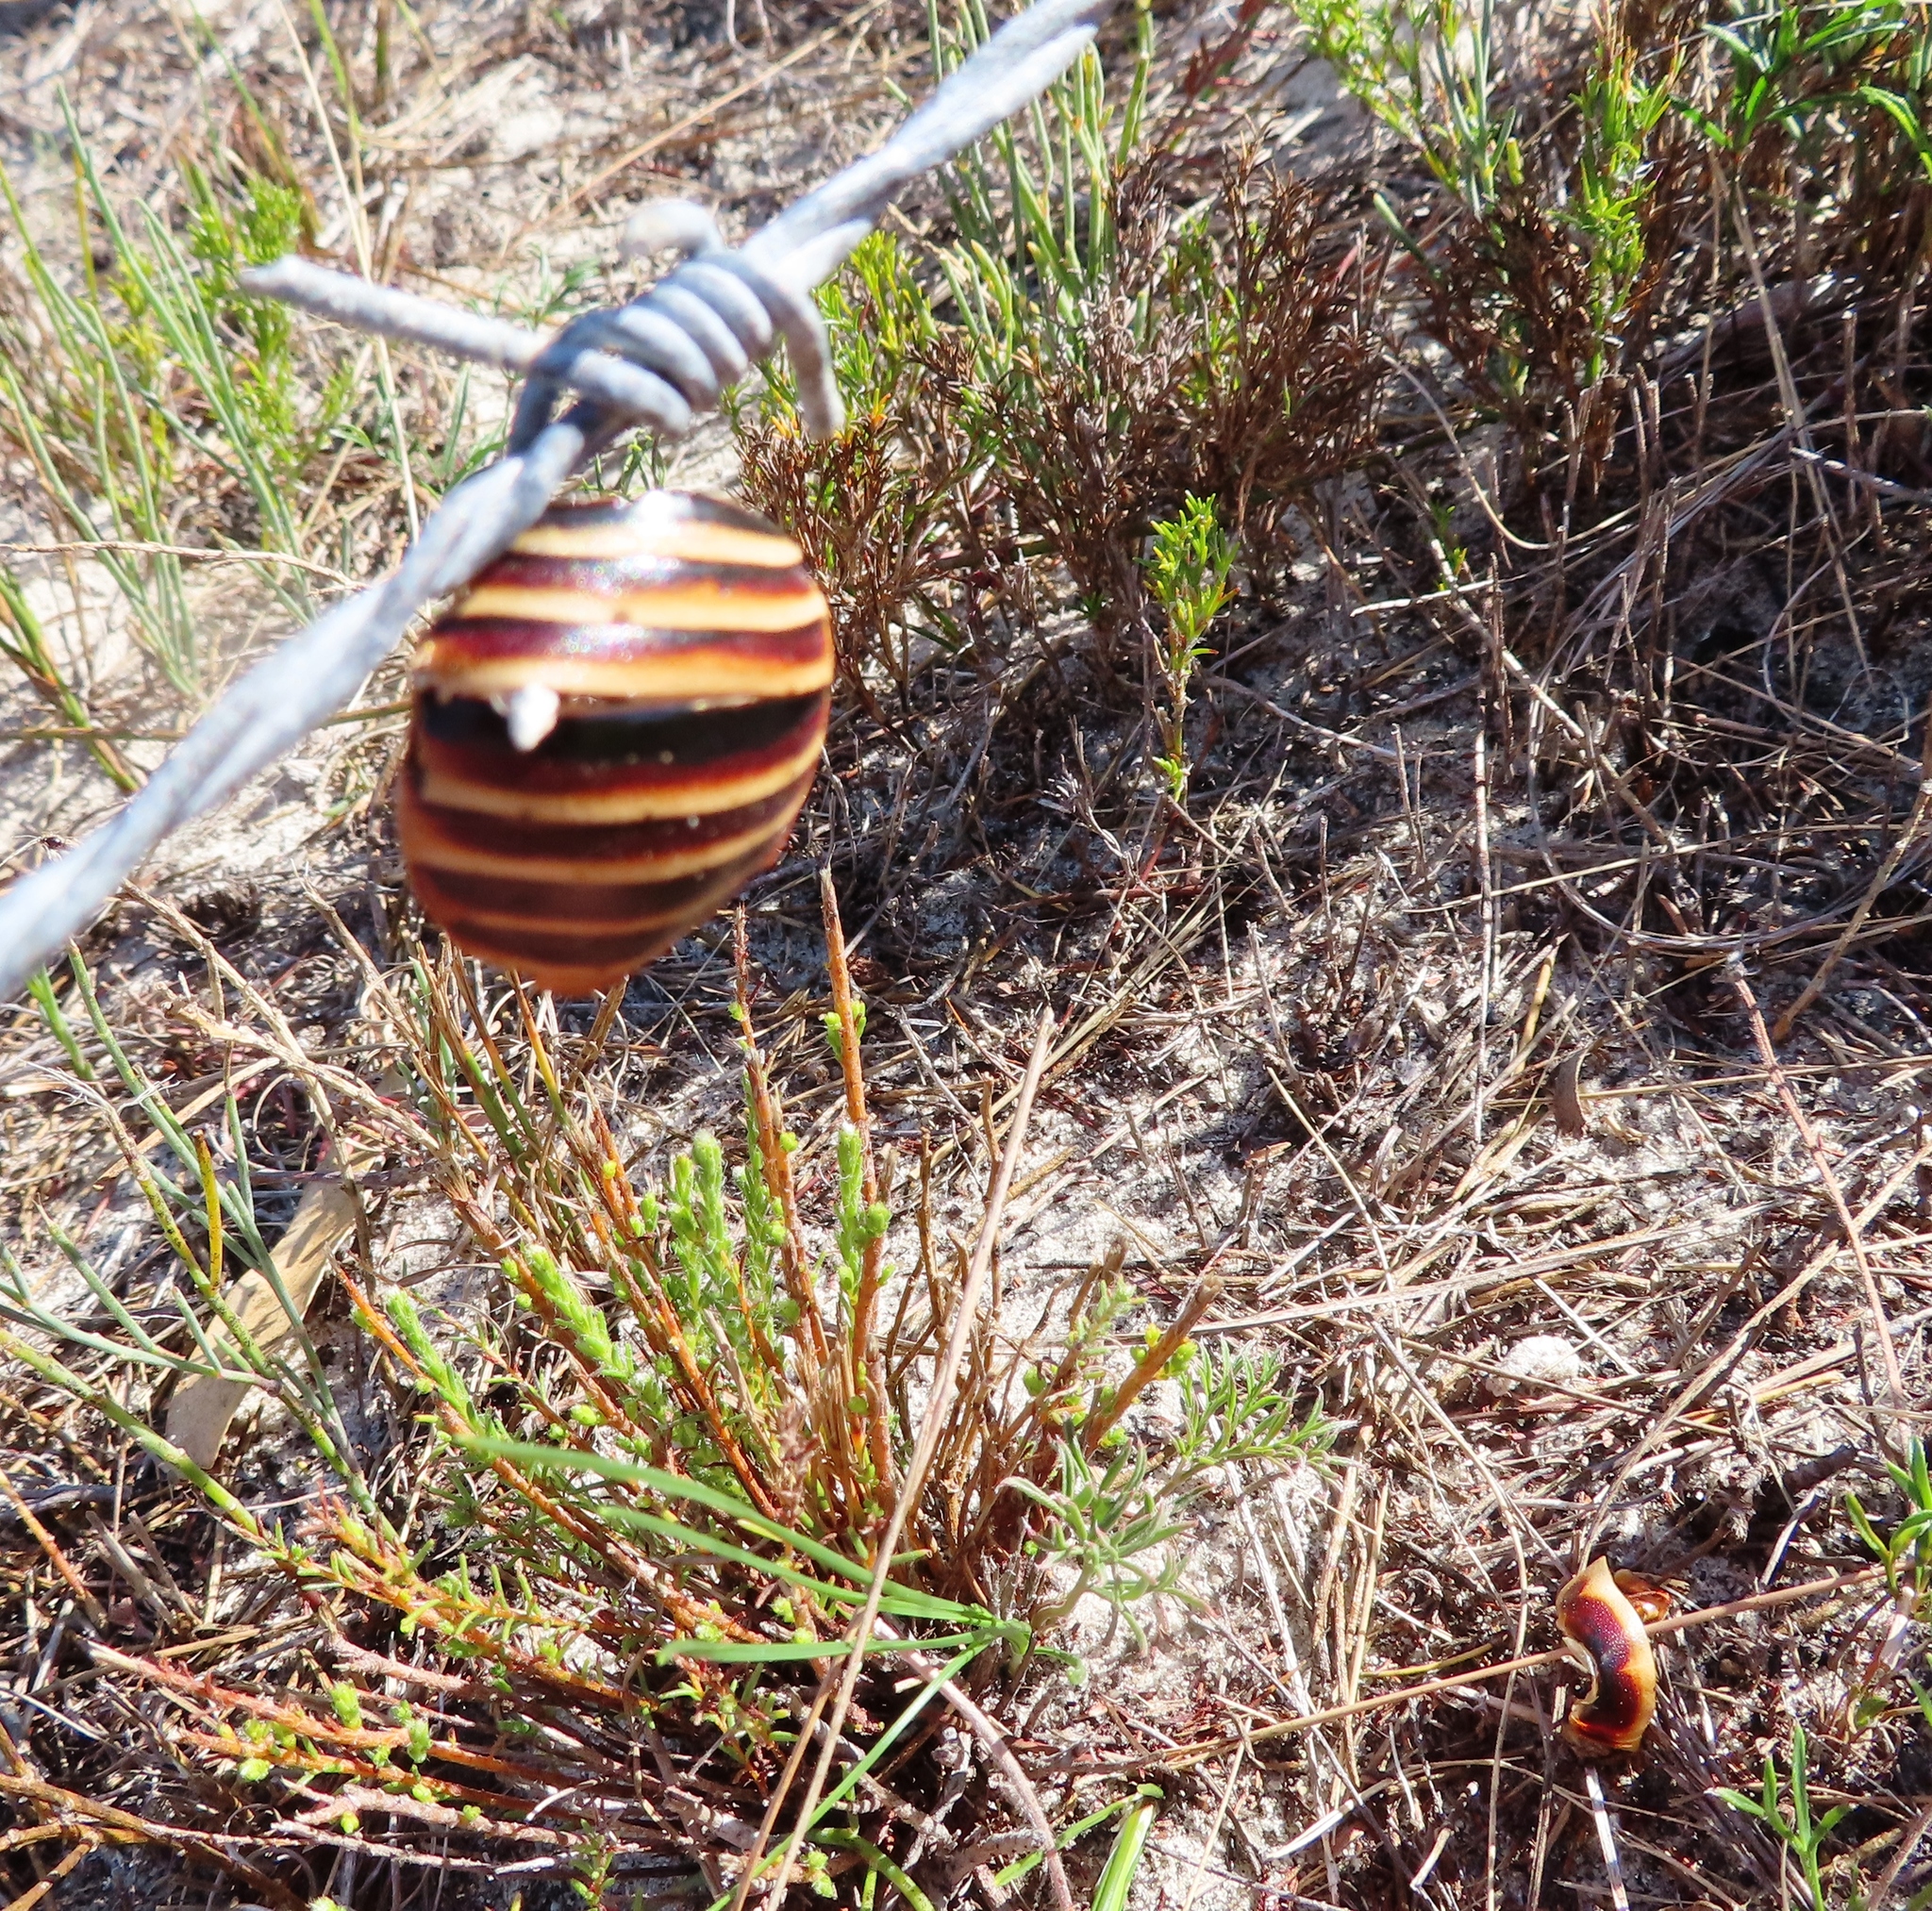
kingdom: Animalia
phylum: Arthropoda
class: Insecta
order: Blattodea
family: Blaberidae
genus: Aptera
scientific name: Aptera fusca
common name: Cape mountain cockroach
